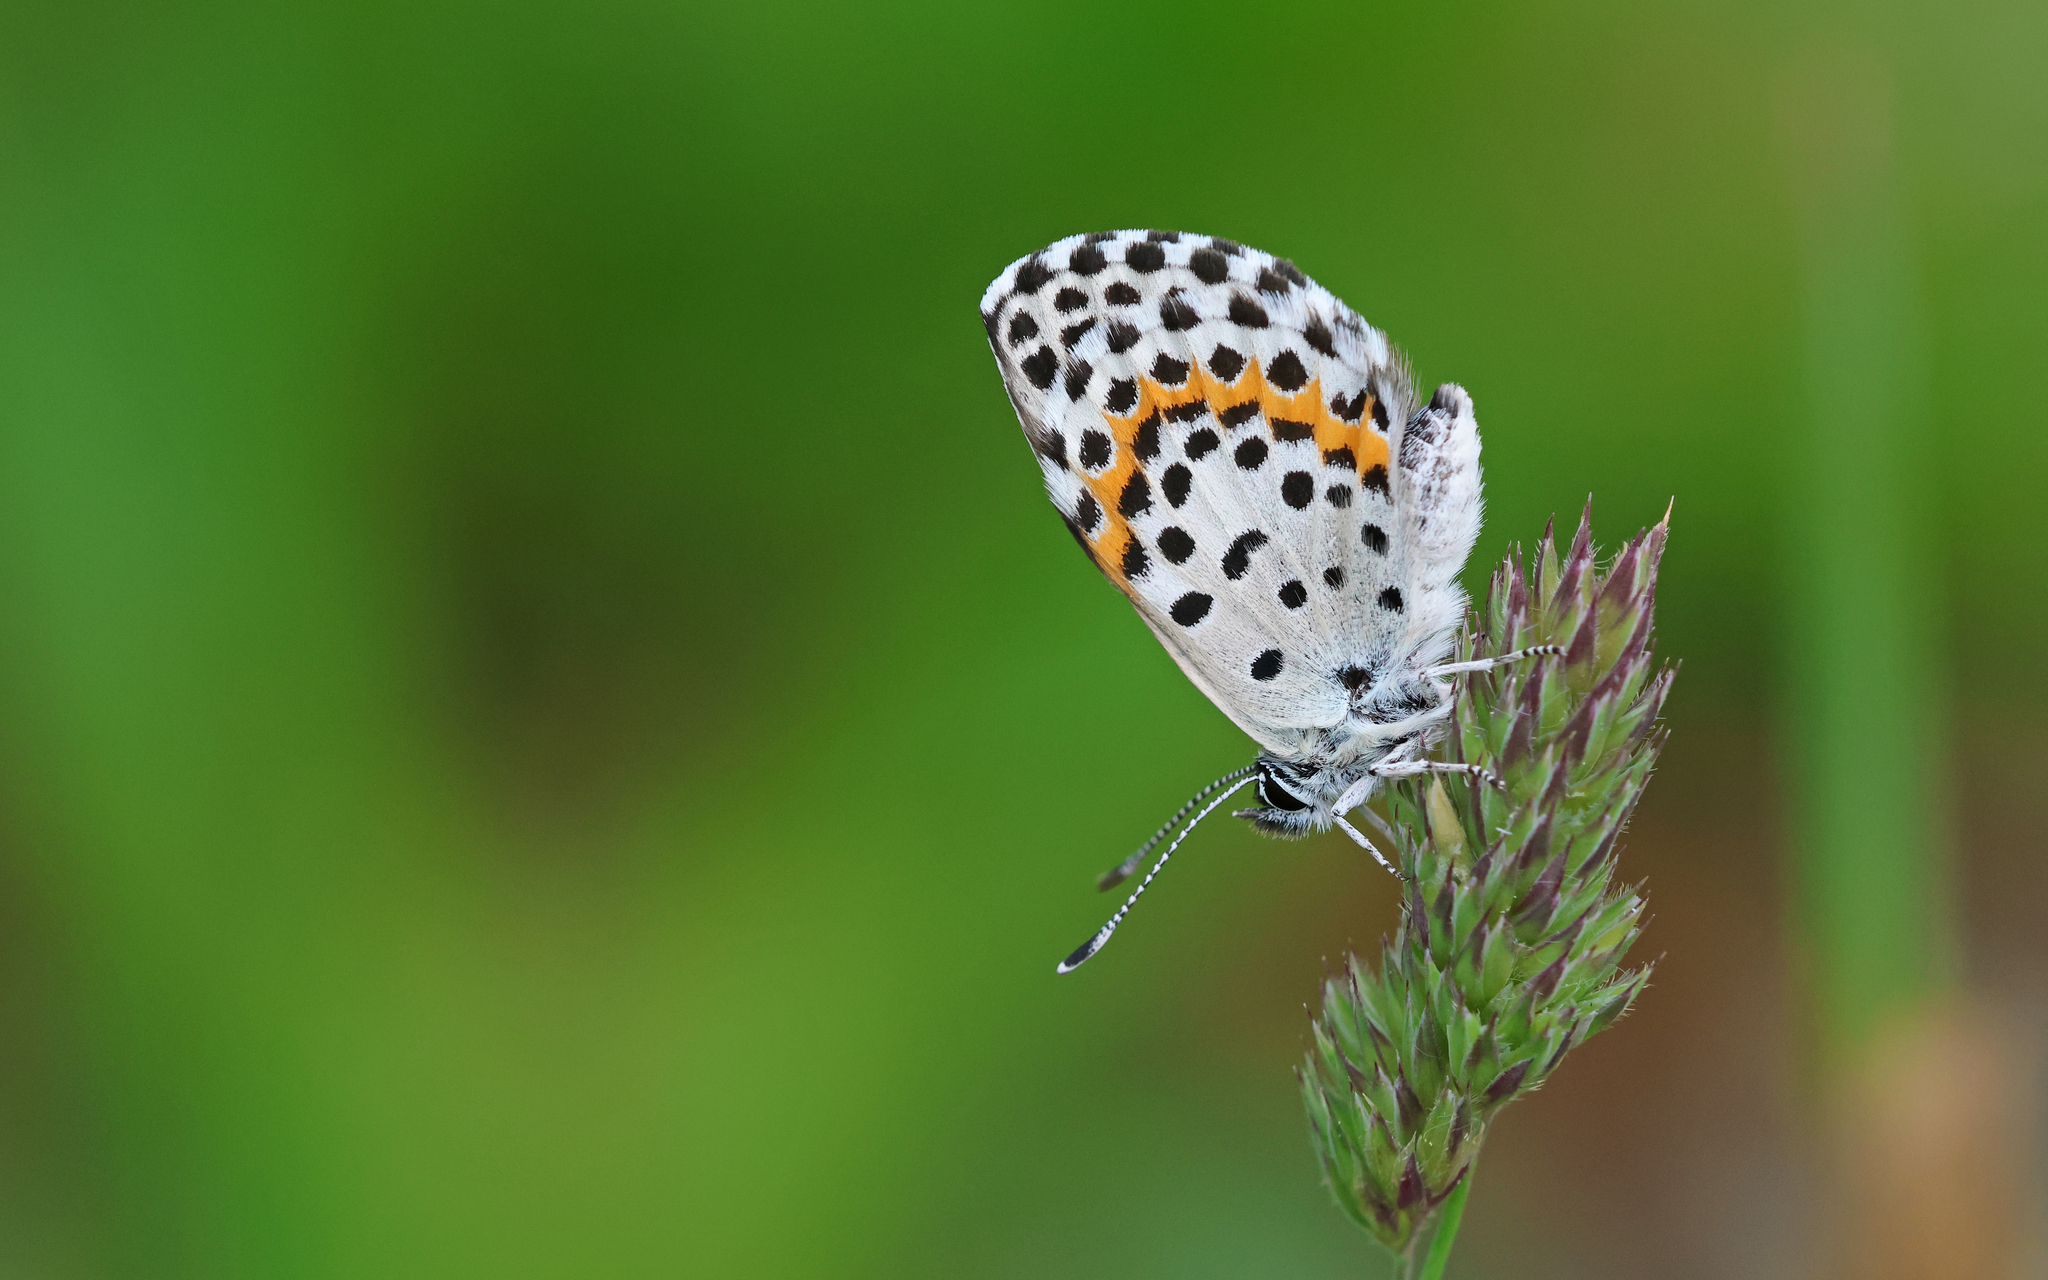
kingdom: Animalia
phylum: Arthropoda
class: Insecta
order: Lepidoptera
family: Lycaenidae
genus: Scolitantides
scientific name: Scolitantides orion
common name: Chequered blue
